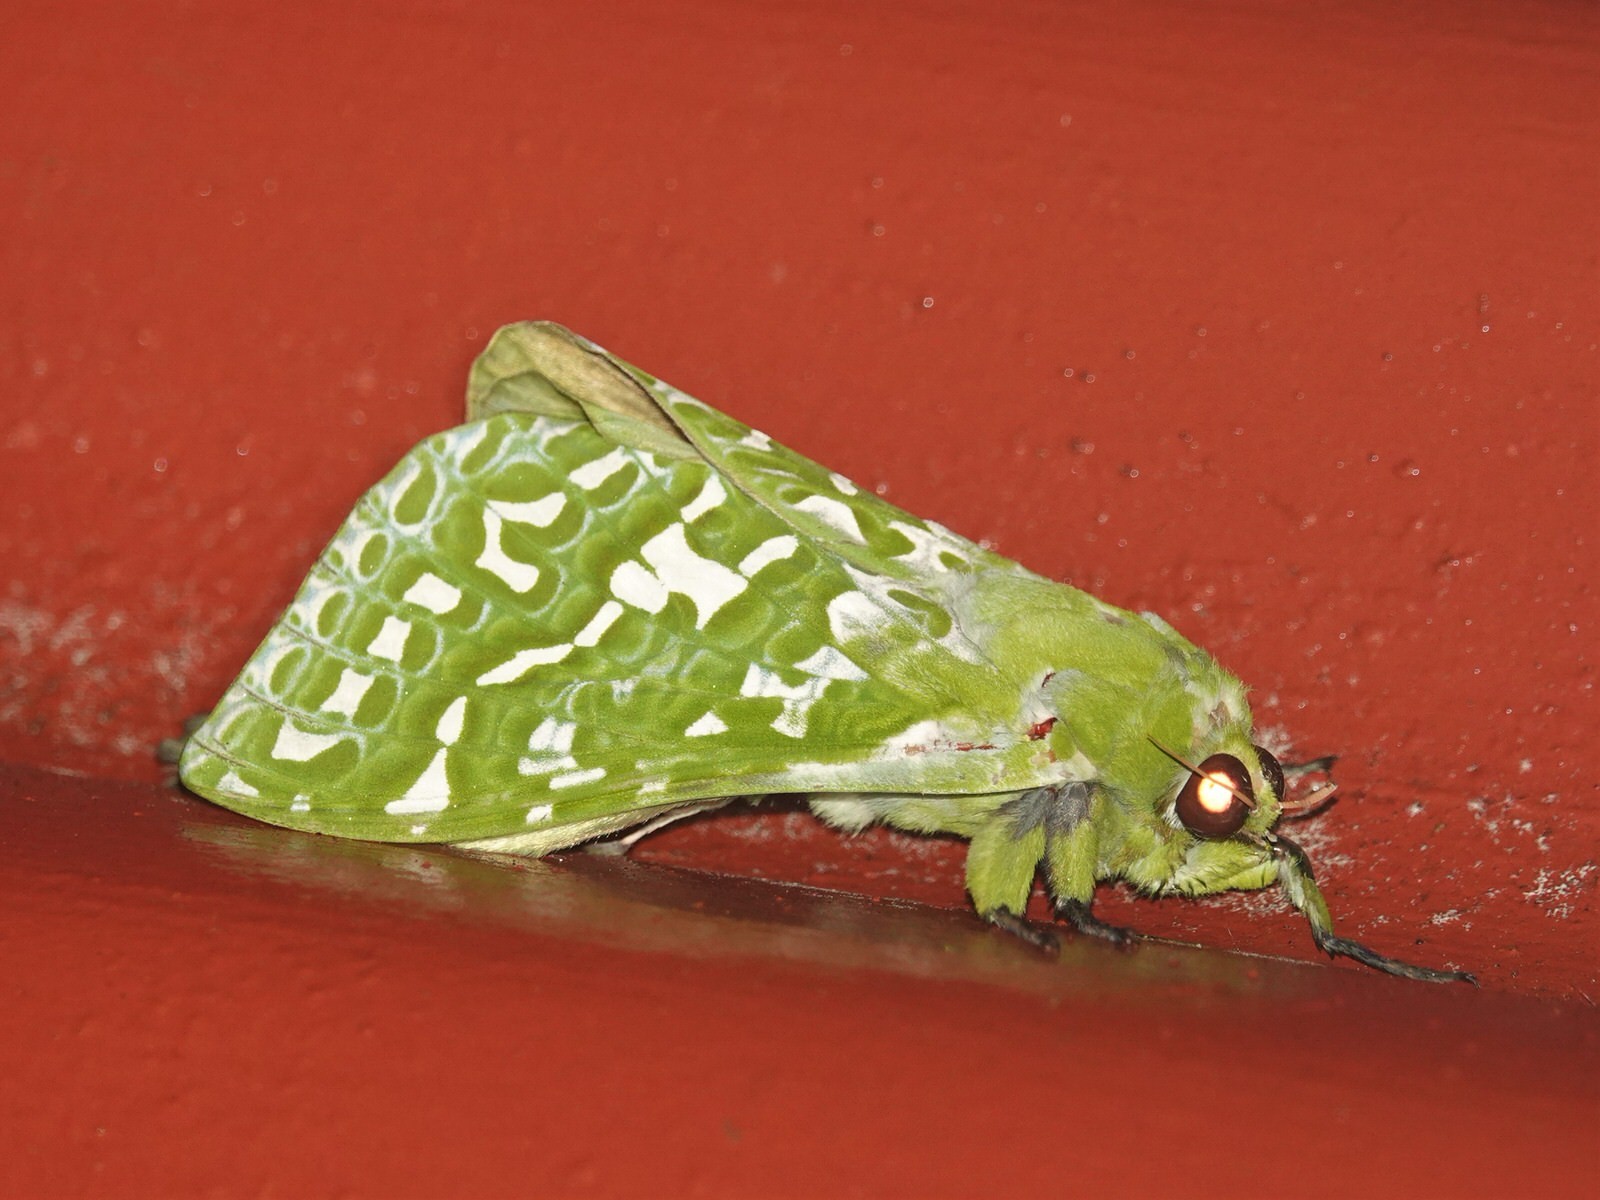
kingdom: Animalia
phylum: Arthropoda
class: Insecta
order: Lepidoptera
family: Hepialidae
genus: Aenetus
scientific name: Aenetus virescens
